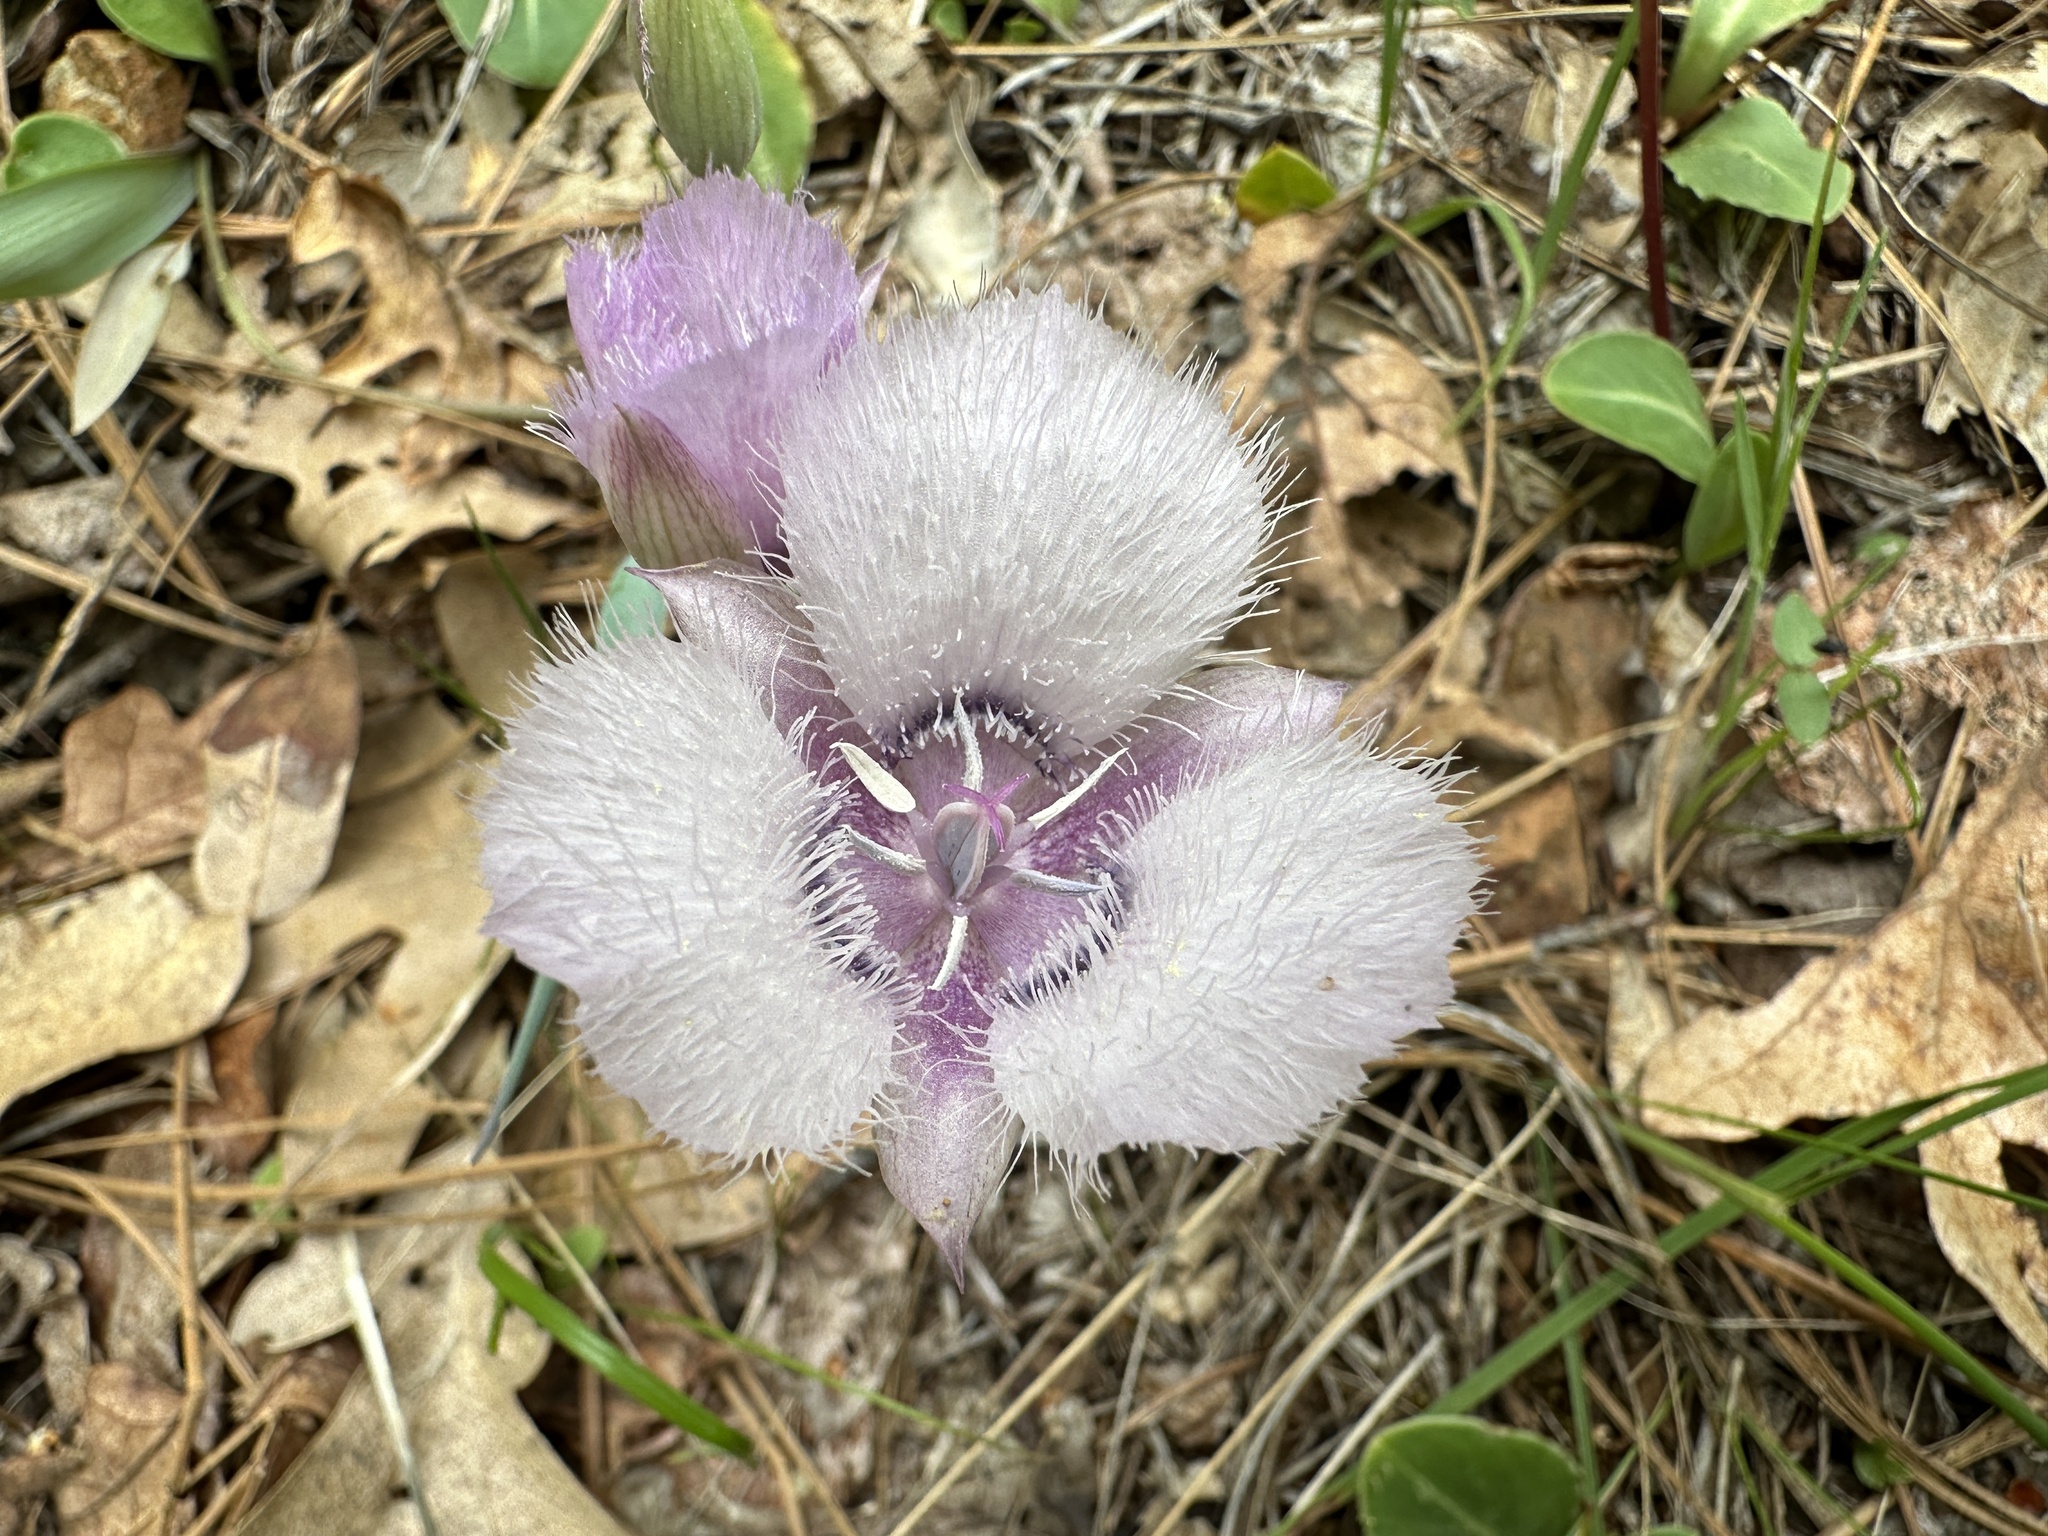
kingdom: Plantae
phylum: Tracheophyta
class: Liliopsida
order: Liliales
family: Liliaceae
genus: Calochortus
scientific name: Calochortus tolmiei
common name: Pussy-ears
